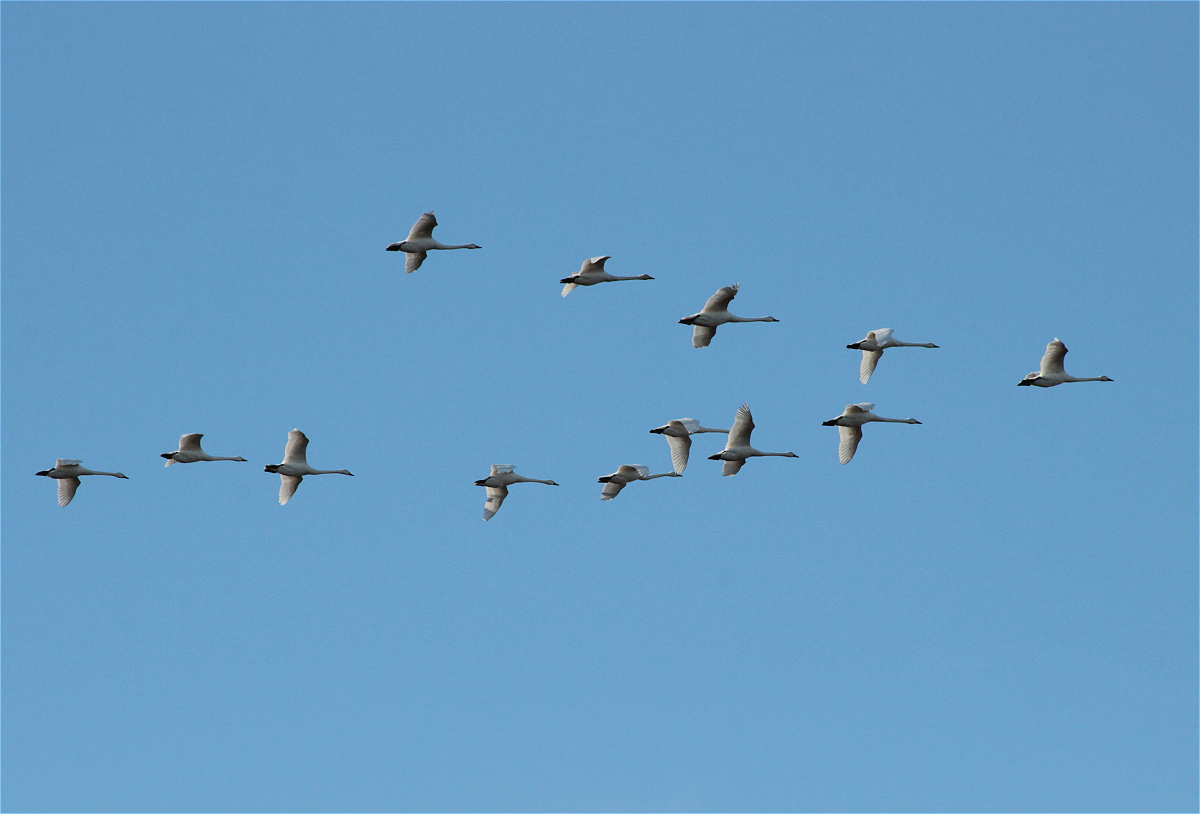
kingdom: Animalia
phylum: Chordata
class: Aves
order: Anseriformes
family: Anatidae
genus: Cygnus
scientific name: Cygnus cygnus
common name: Whooper swan
